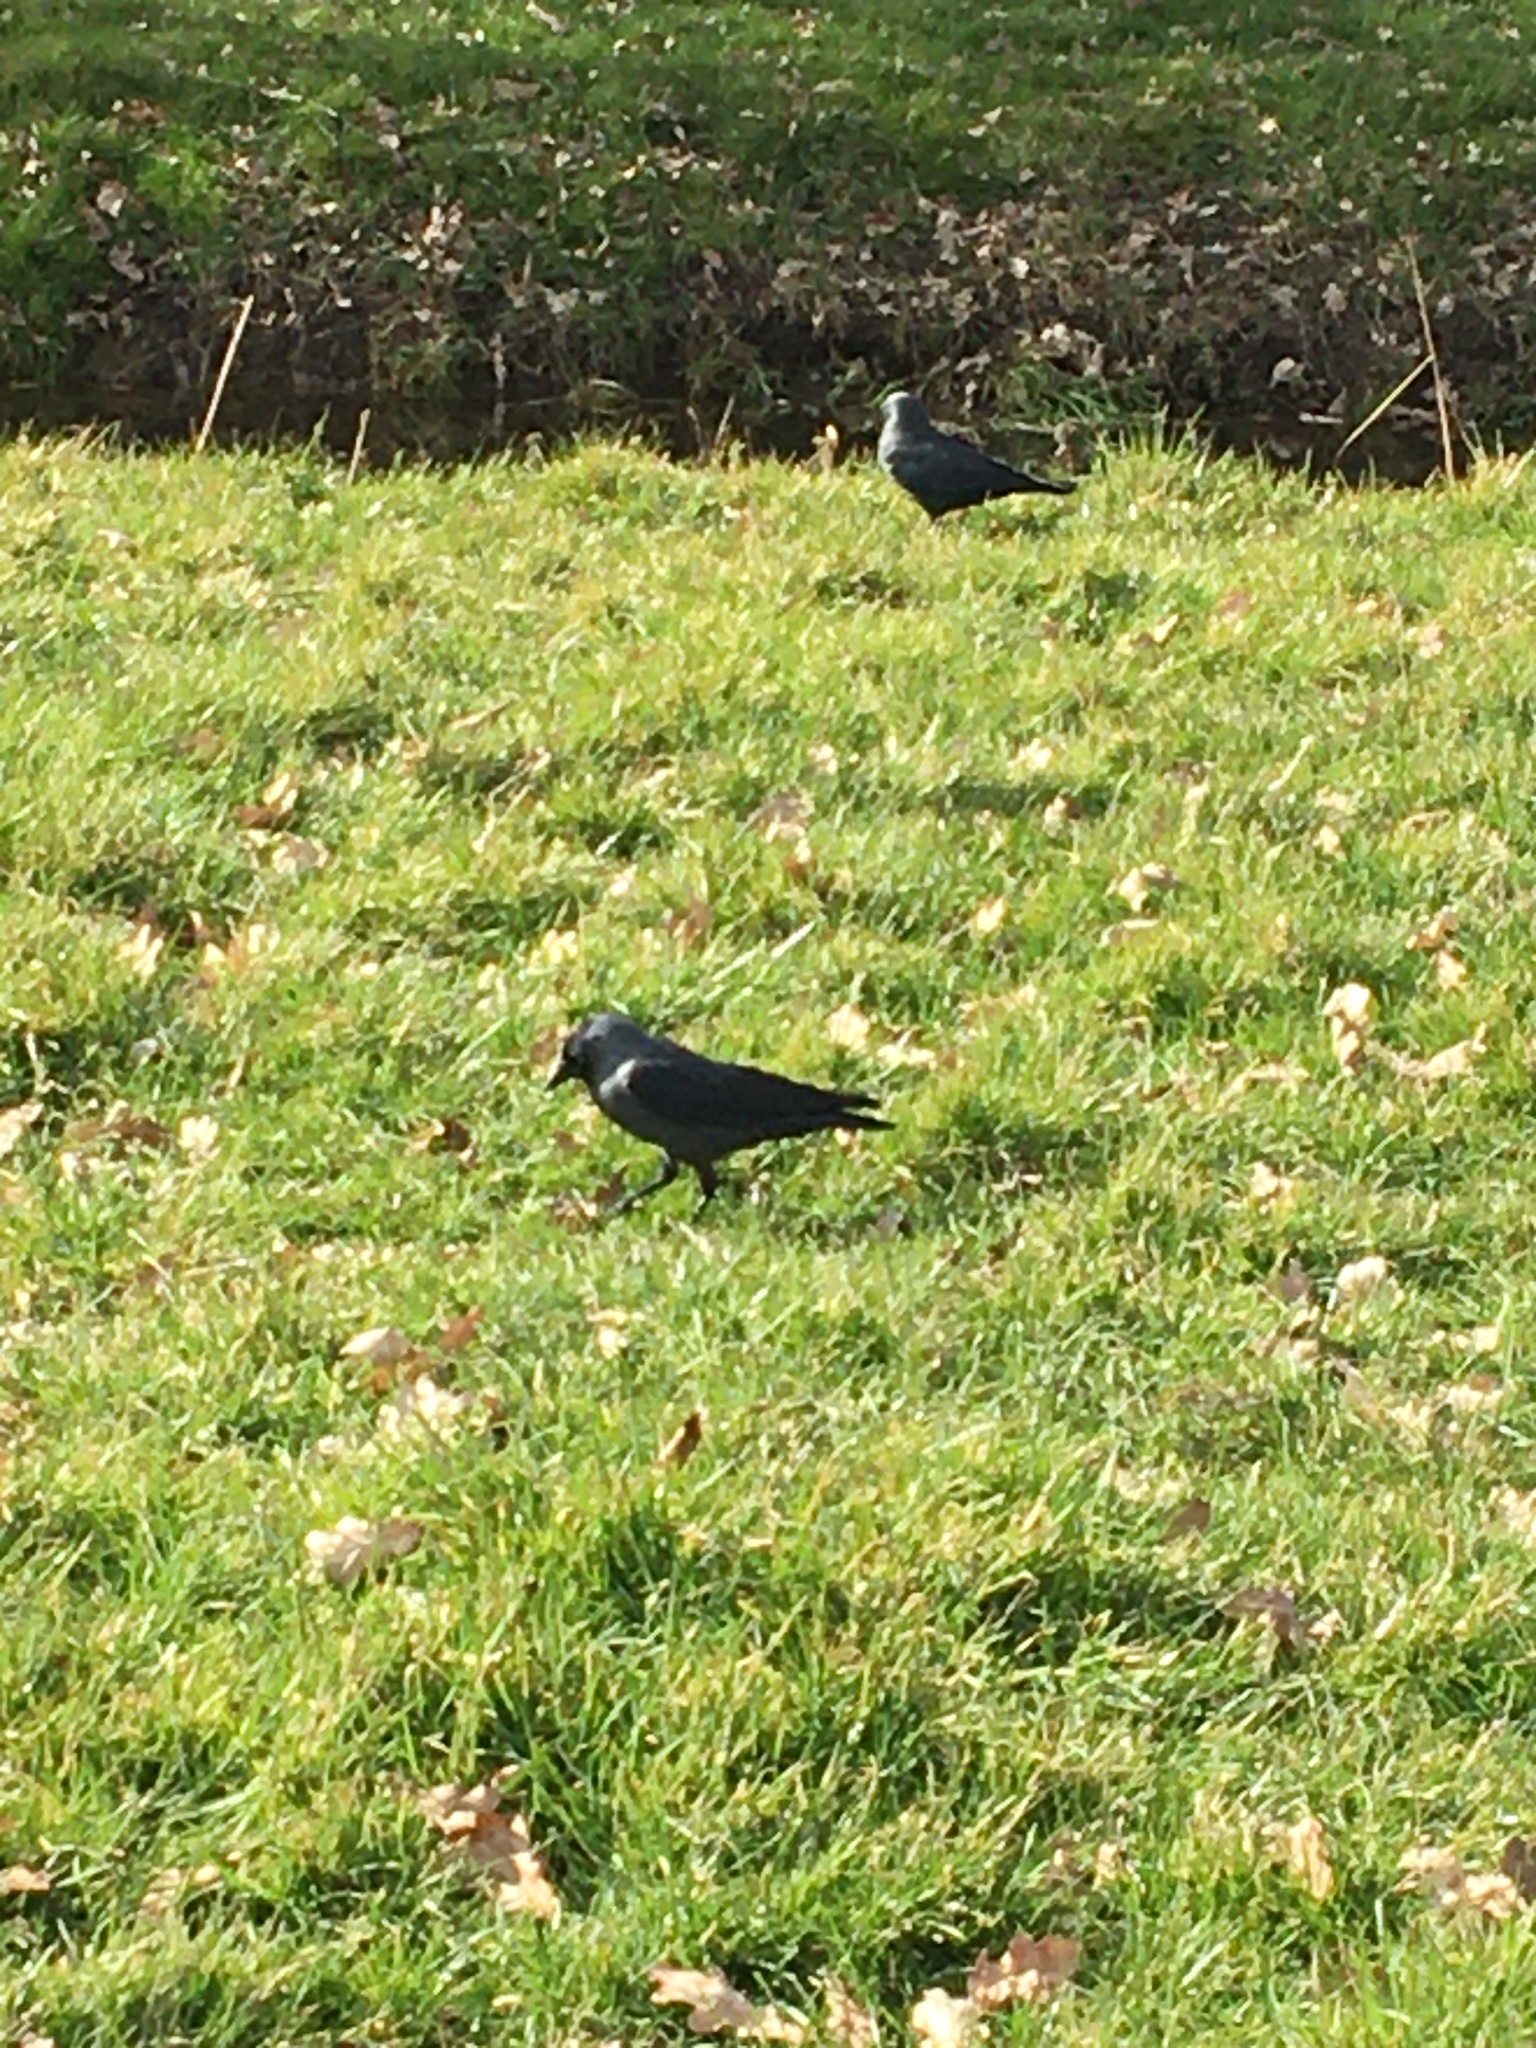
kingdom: Animalia
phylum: Chordata
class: Aves
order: Passeriformes
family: Corvidae
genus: Coloeus
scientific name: Coloeus monedula
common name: Western jackdaw
